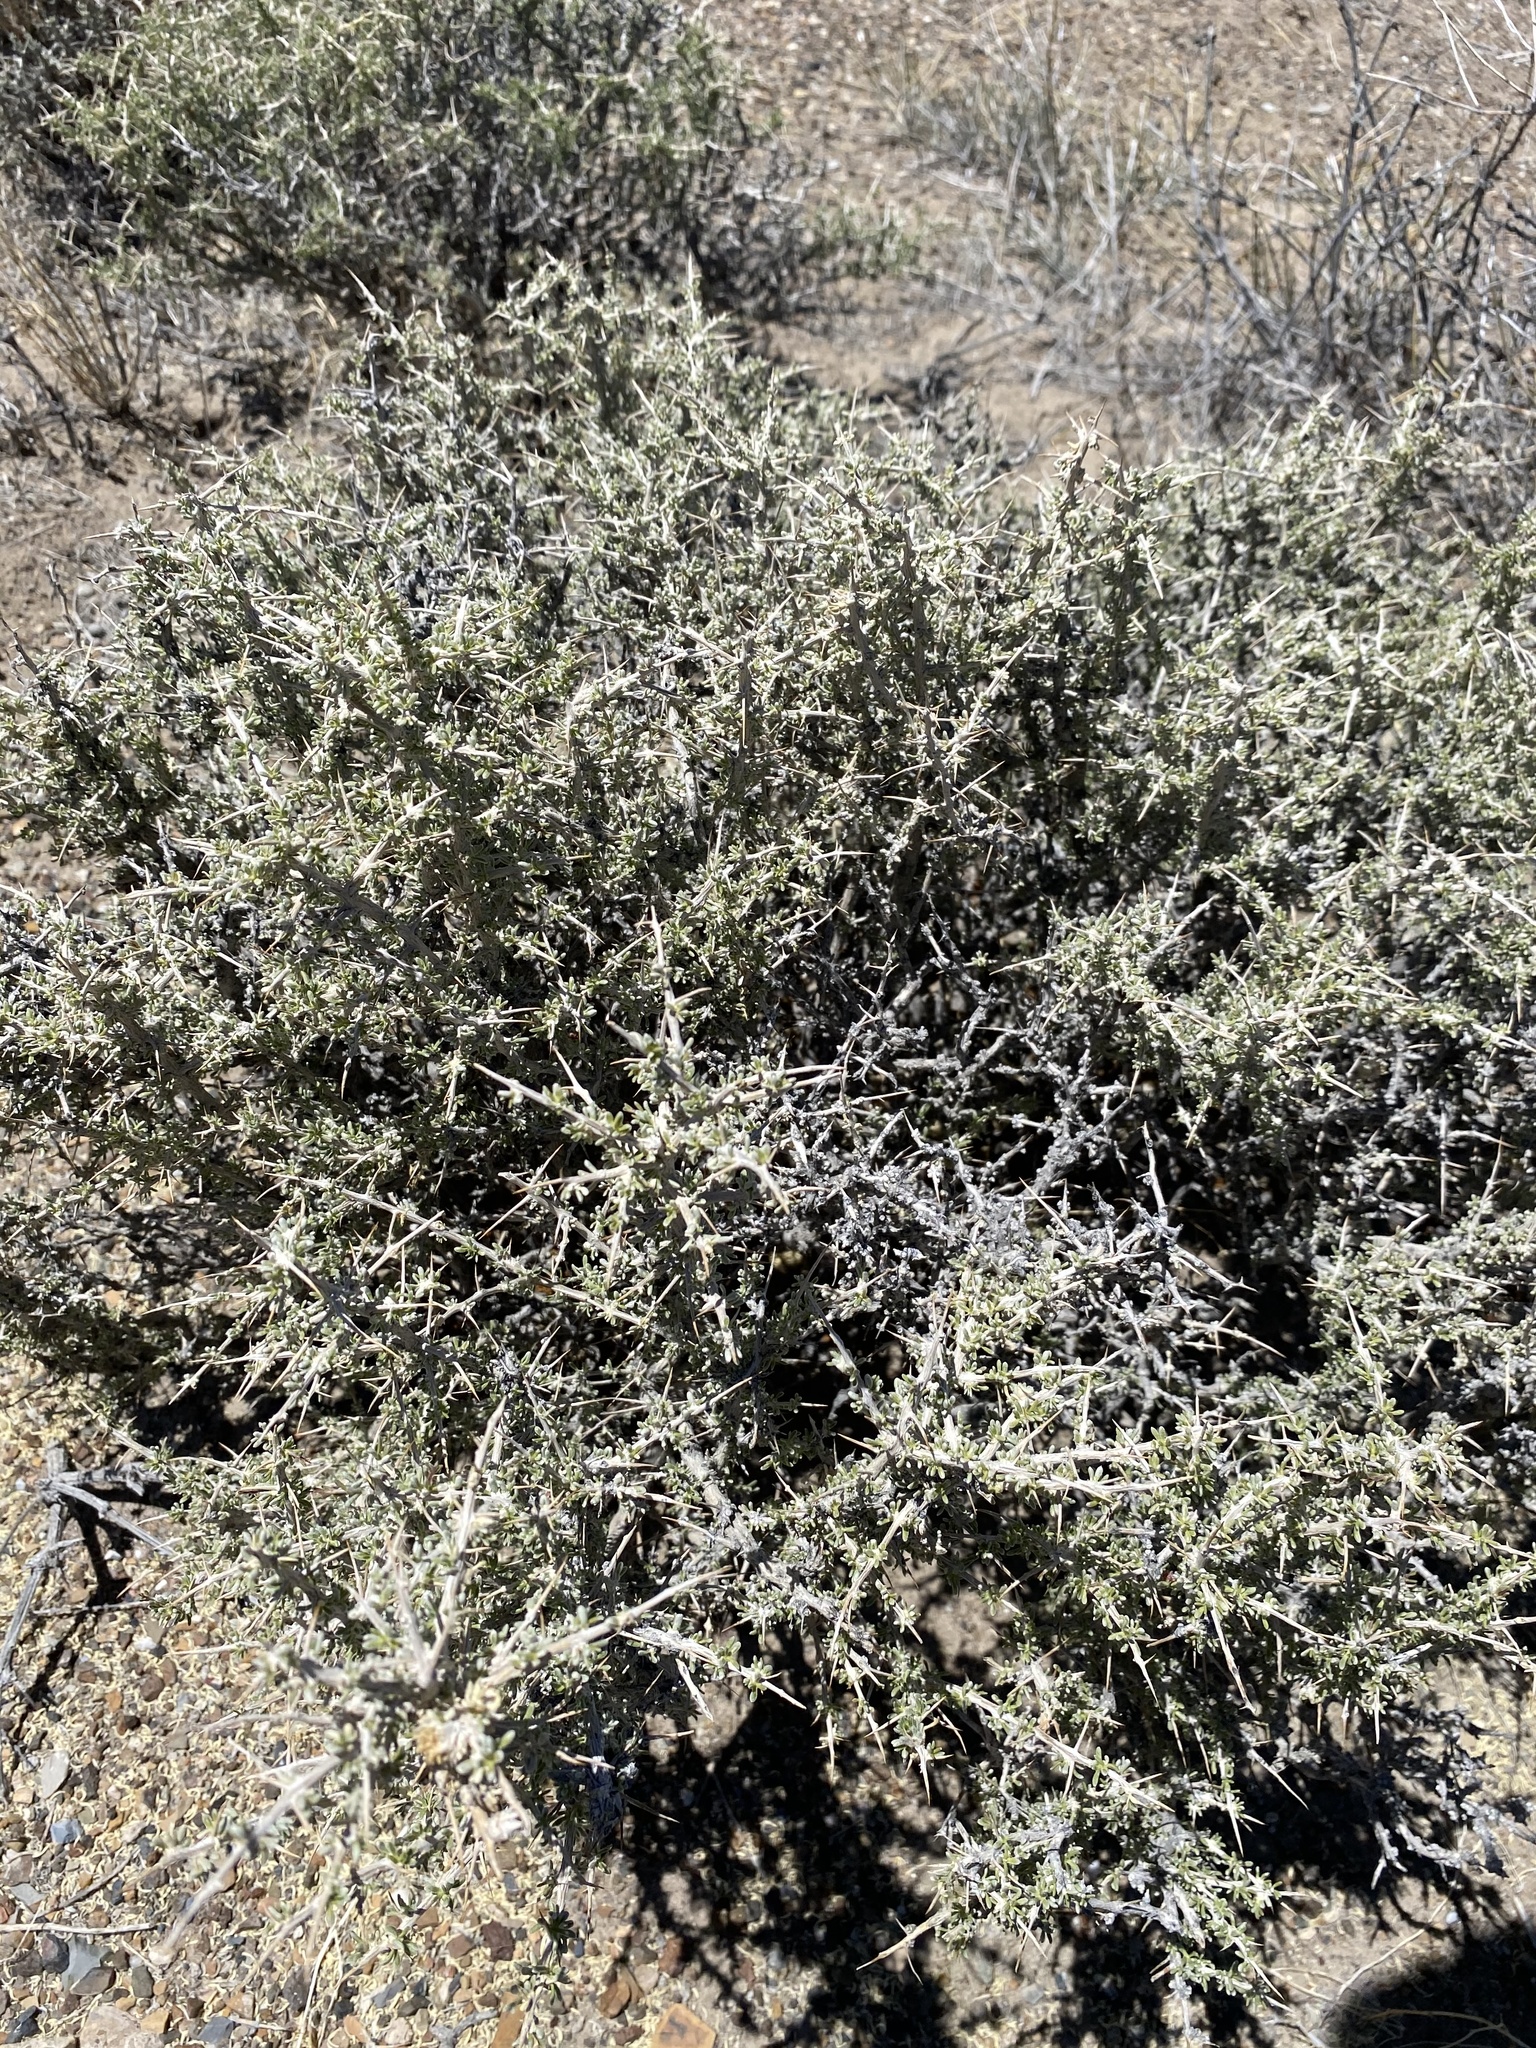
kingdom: Plantae
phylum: Tracheophyta
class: Magnoliopsida
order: Caryophyllales
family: Sarcobataceae
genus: Sarcobatus
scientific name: Sarcobatus baileyi
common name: Bailey greasewood
